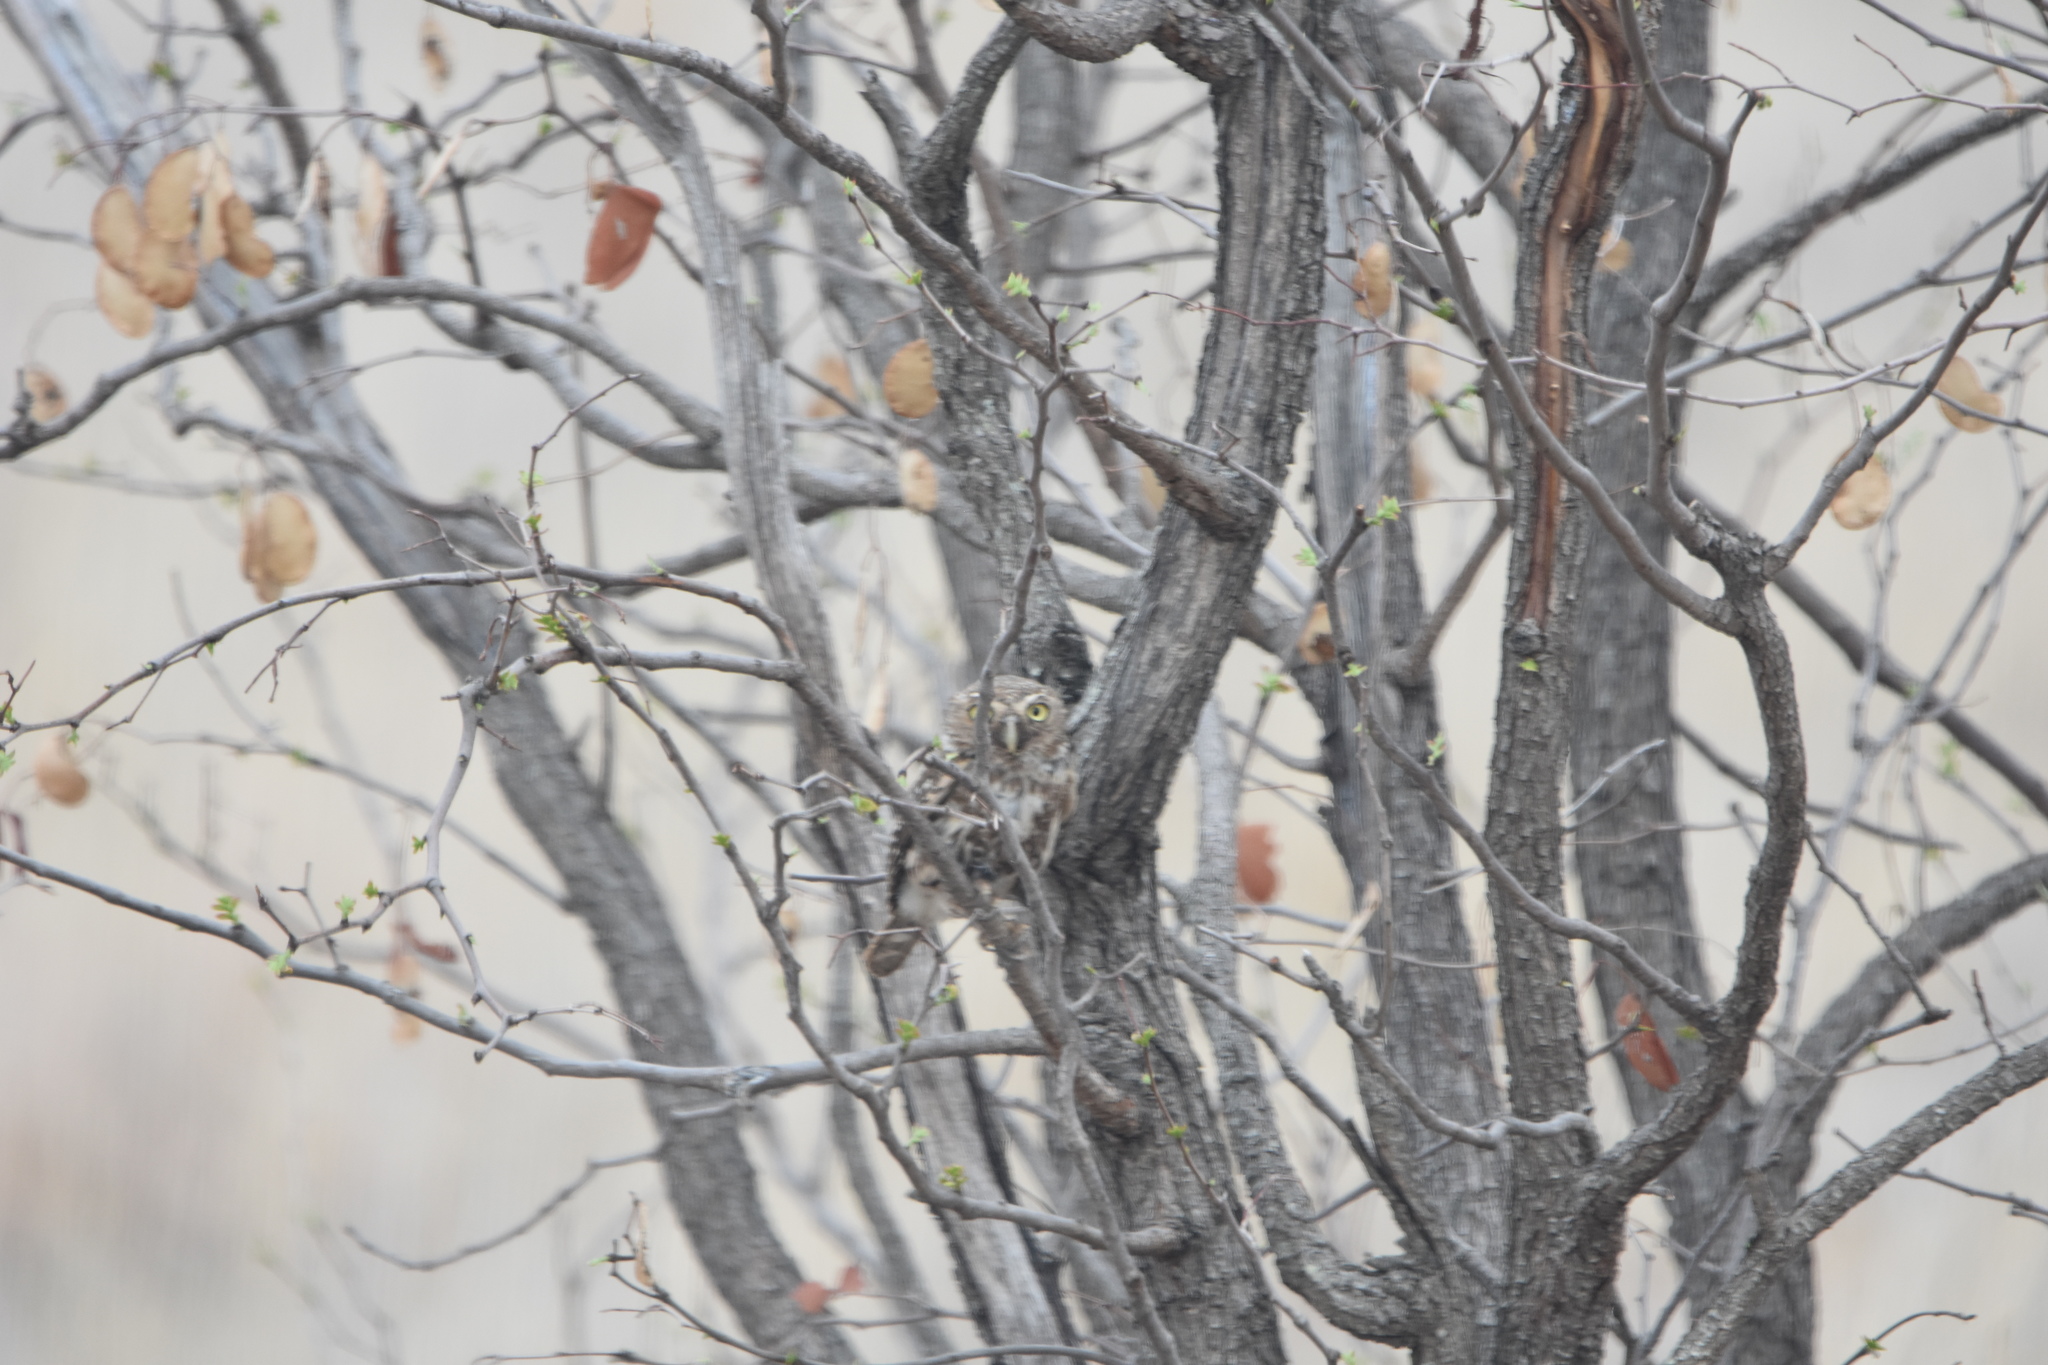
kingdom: Animalia
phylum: Chordata
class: Aves
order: Strigiformes
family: Strigidae
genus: Glaucidium
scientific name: Glaucidium perlatum
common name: Pearl-spotted owlet
